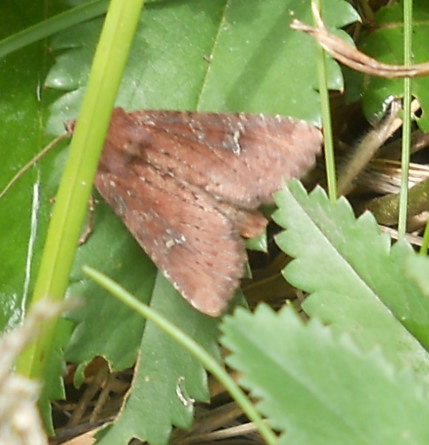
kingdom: Animalia
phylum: Arthropoda
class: Insecta
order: Lepidoptera
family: Noctuidae
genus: Apamea
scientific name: Apamea lateritia
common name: Scarce brindle
